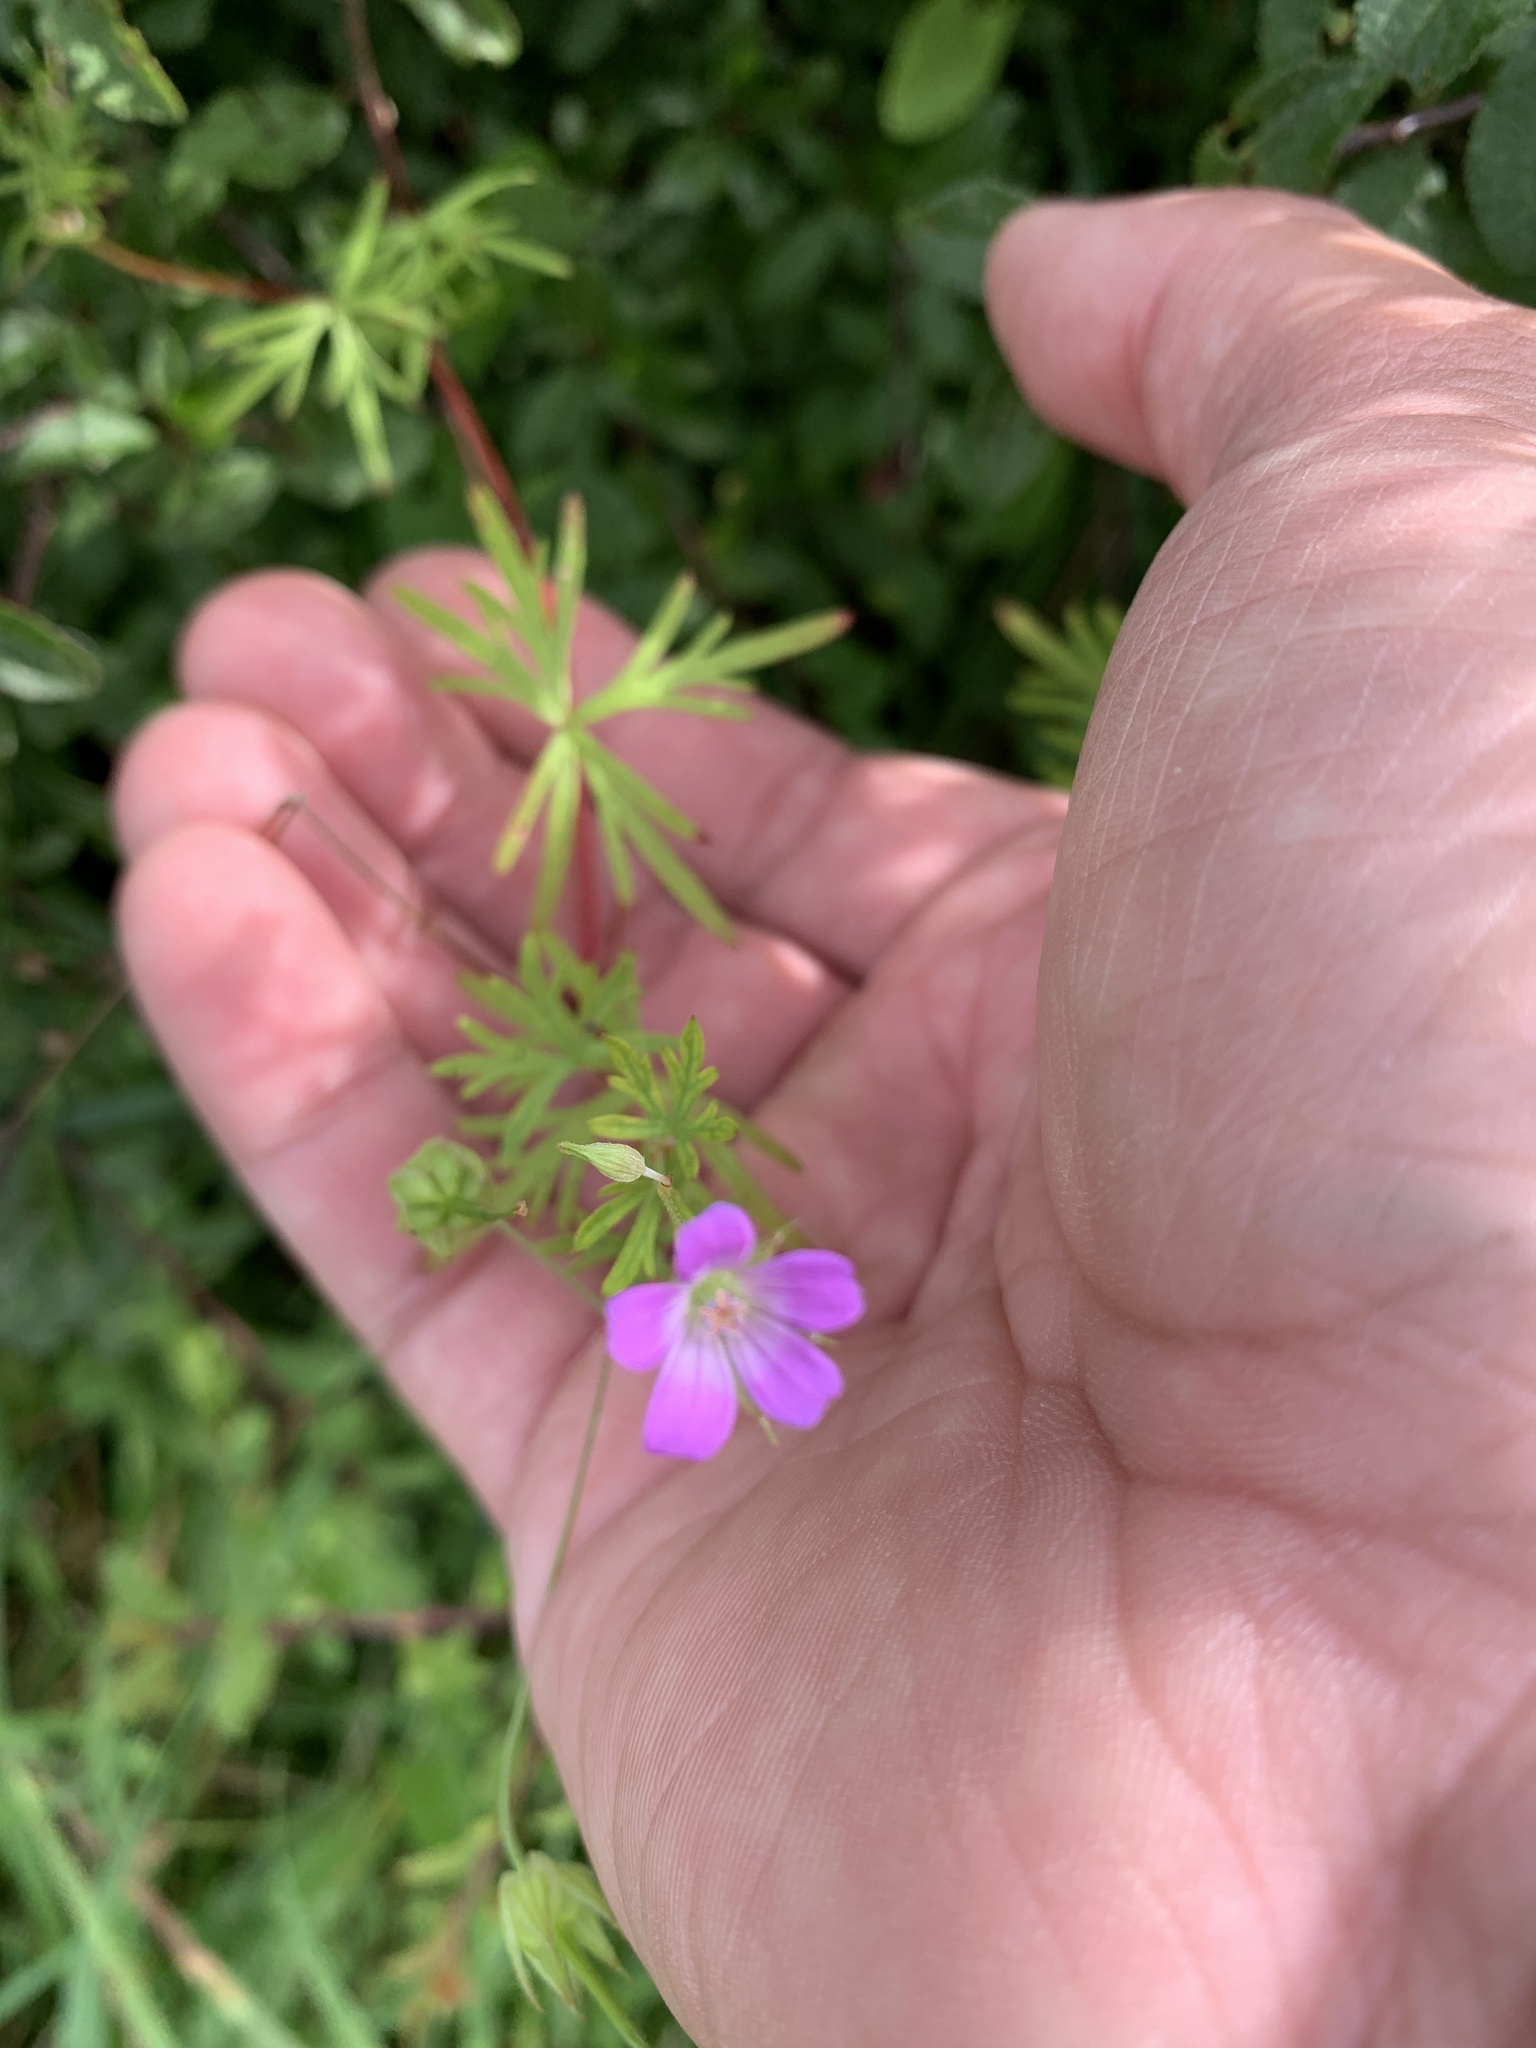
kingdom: Plantae
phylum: Tracheophyta
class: Magnoliopsida
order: Geraniales
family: Geraniaceae
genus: Geranium
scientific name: Geranium columbinum
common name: Long-stalked crane's-bill
